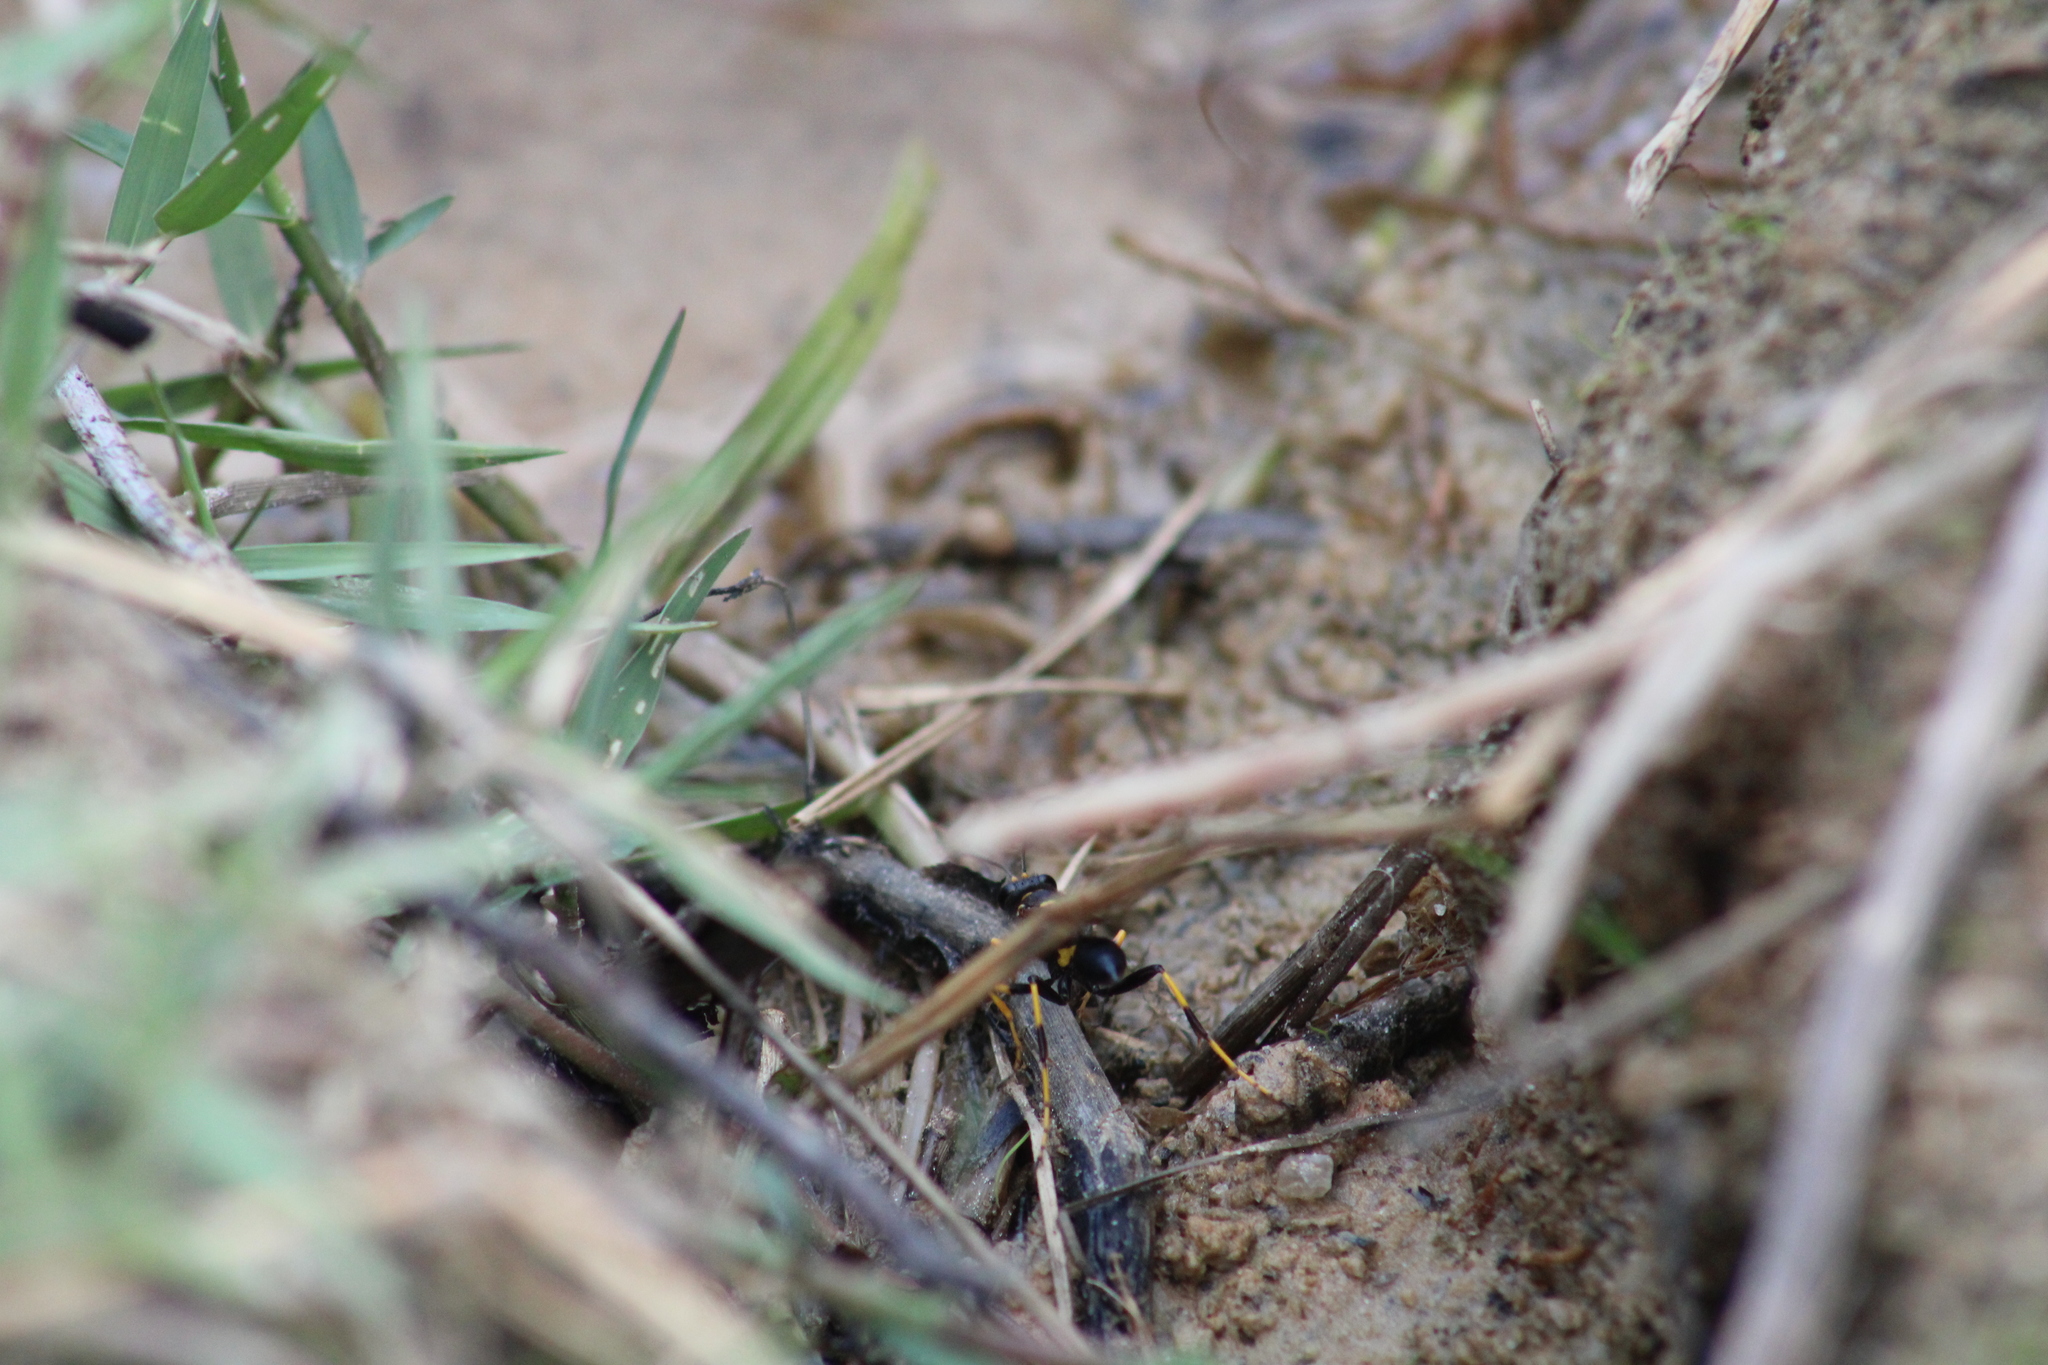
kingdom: Animalia
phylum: Arthropoda
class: Insecta
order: Hymenoptera
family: Sphecidae
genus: Sceliphron
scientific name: Sceliphron caementarium
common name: Mud dauber
